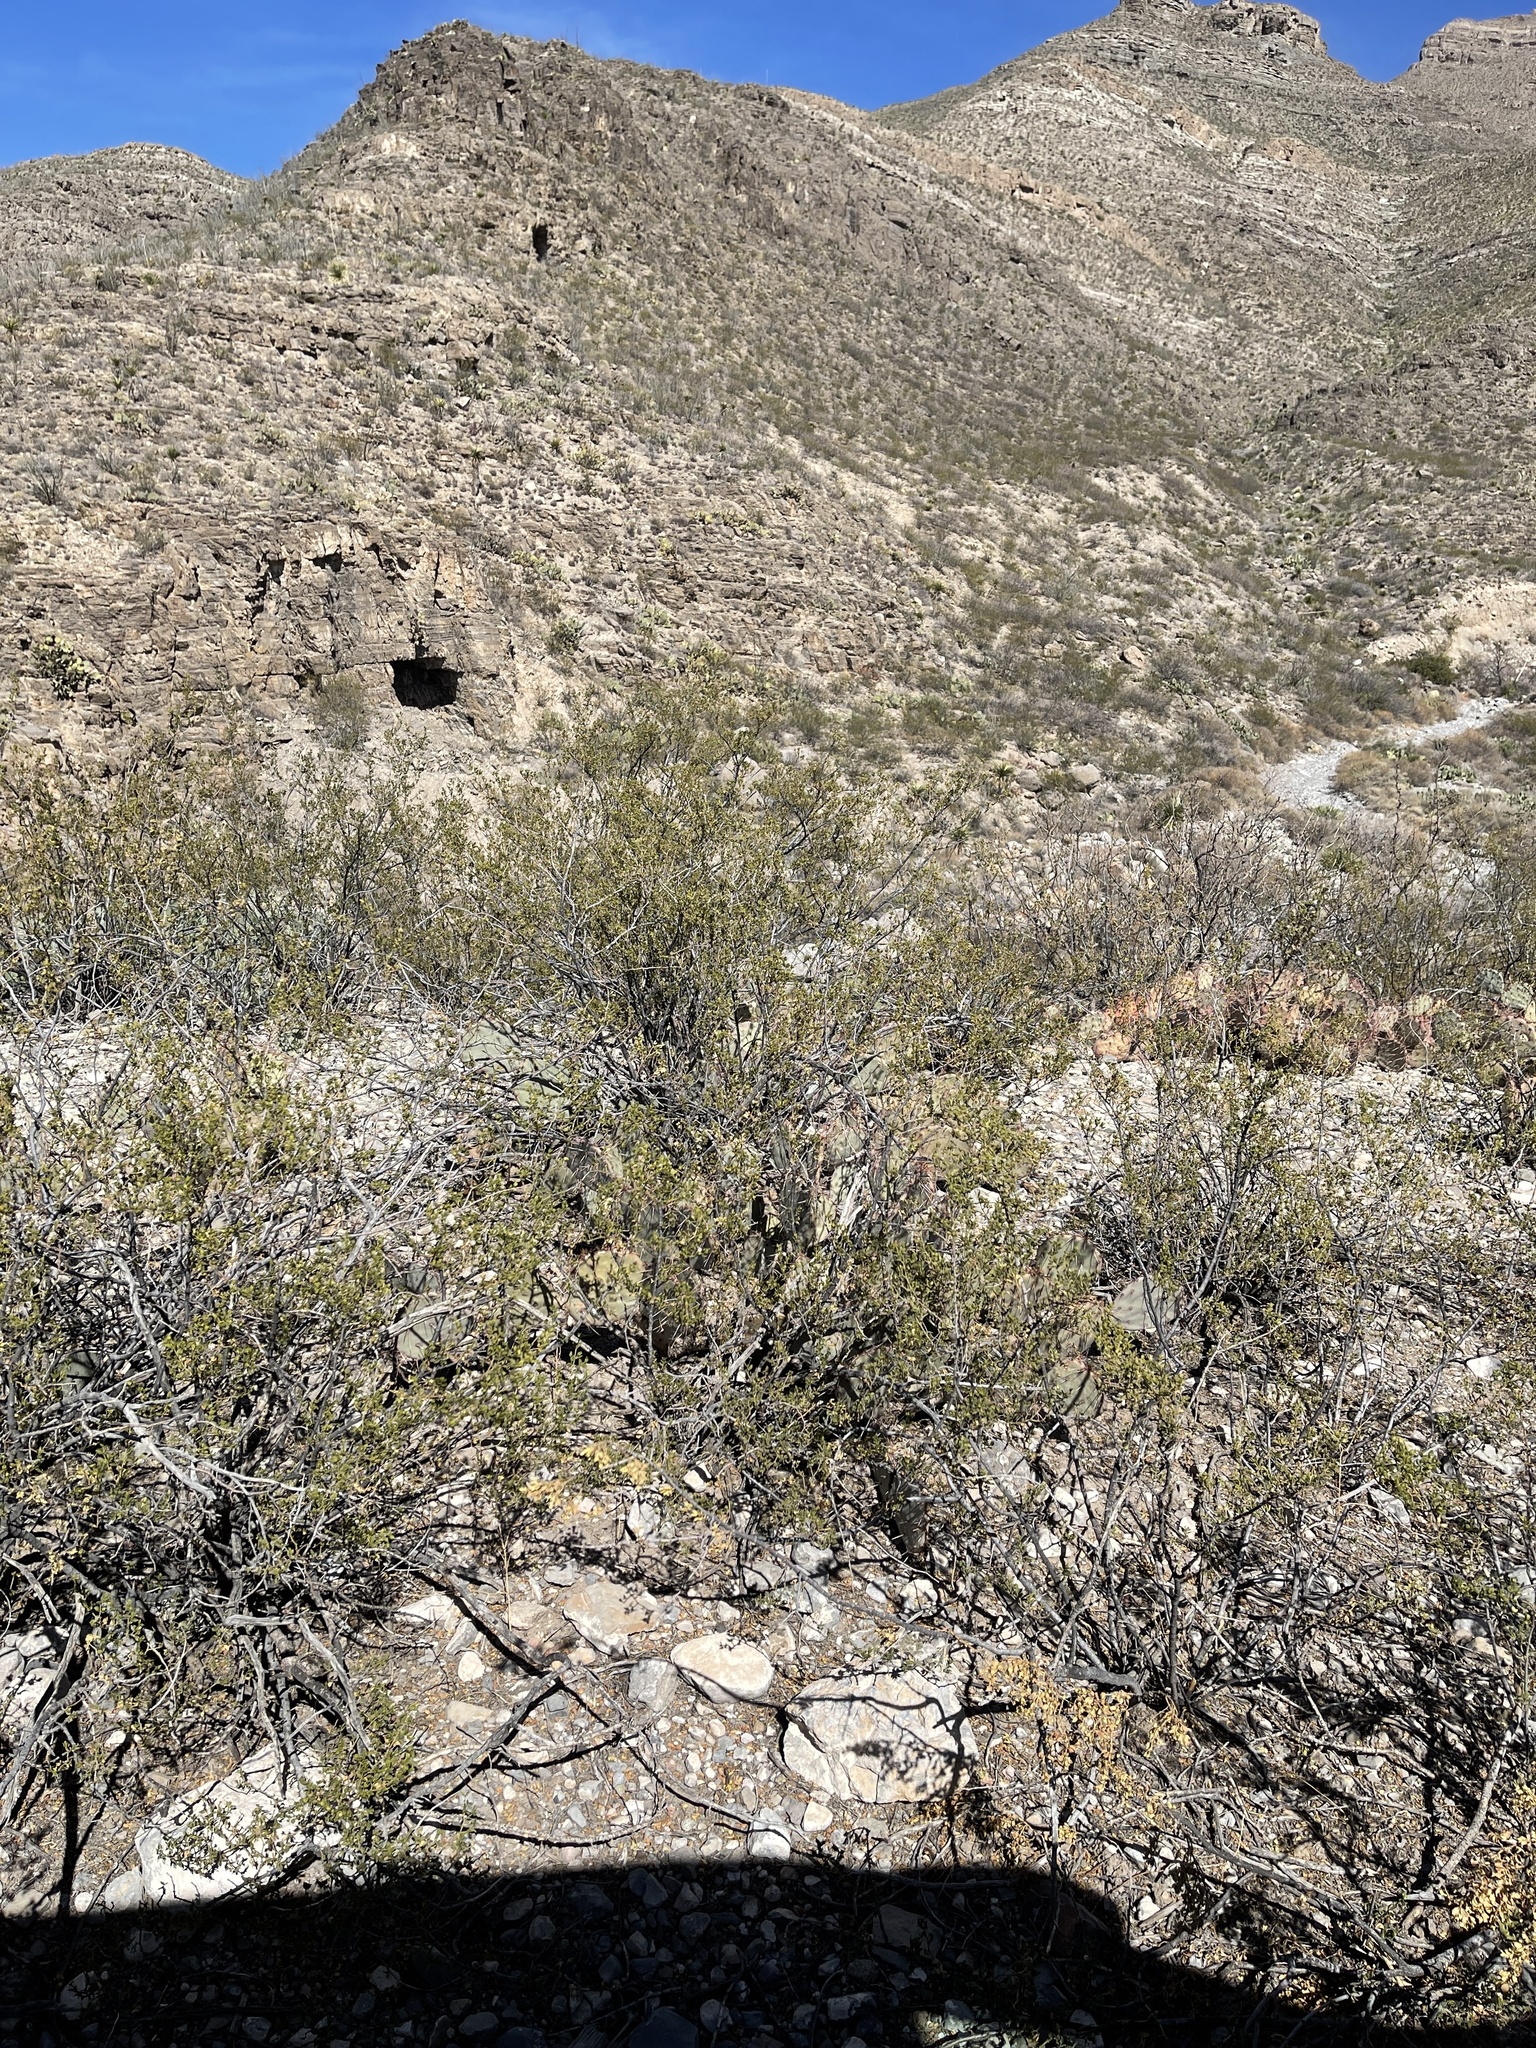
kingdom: Plantae
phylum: Tracheophyta
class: Magnoliopsida
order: Zygophyllales
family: Zygophyllaceae
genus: Larrea
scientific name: Larrea tridentata
